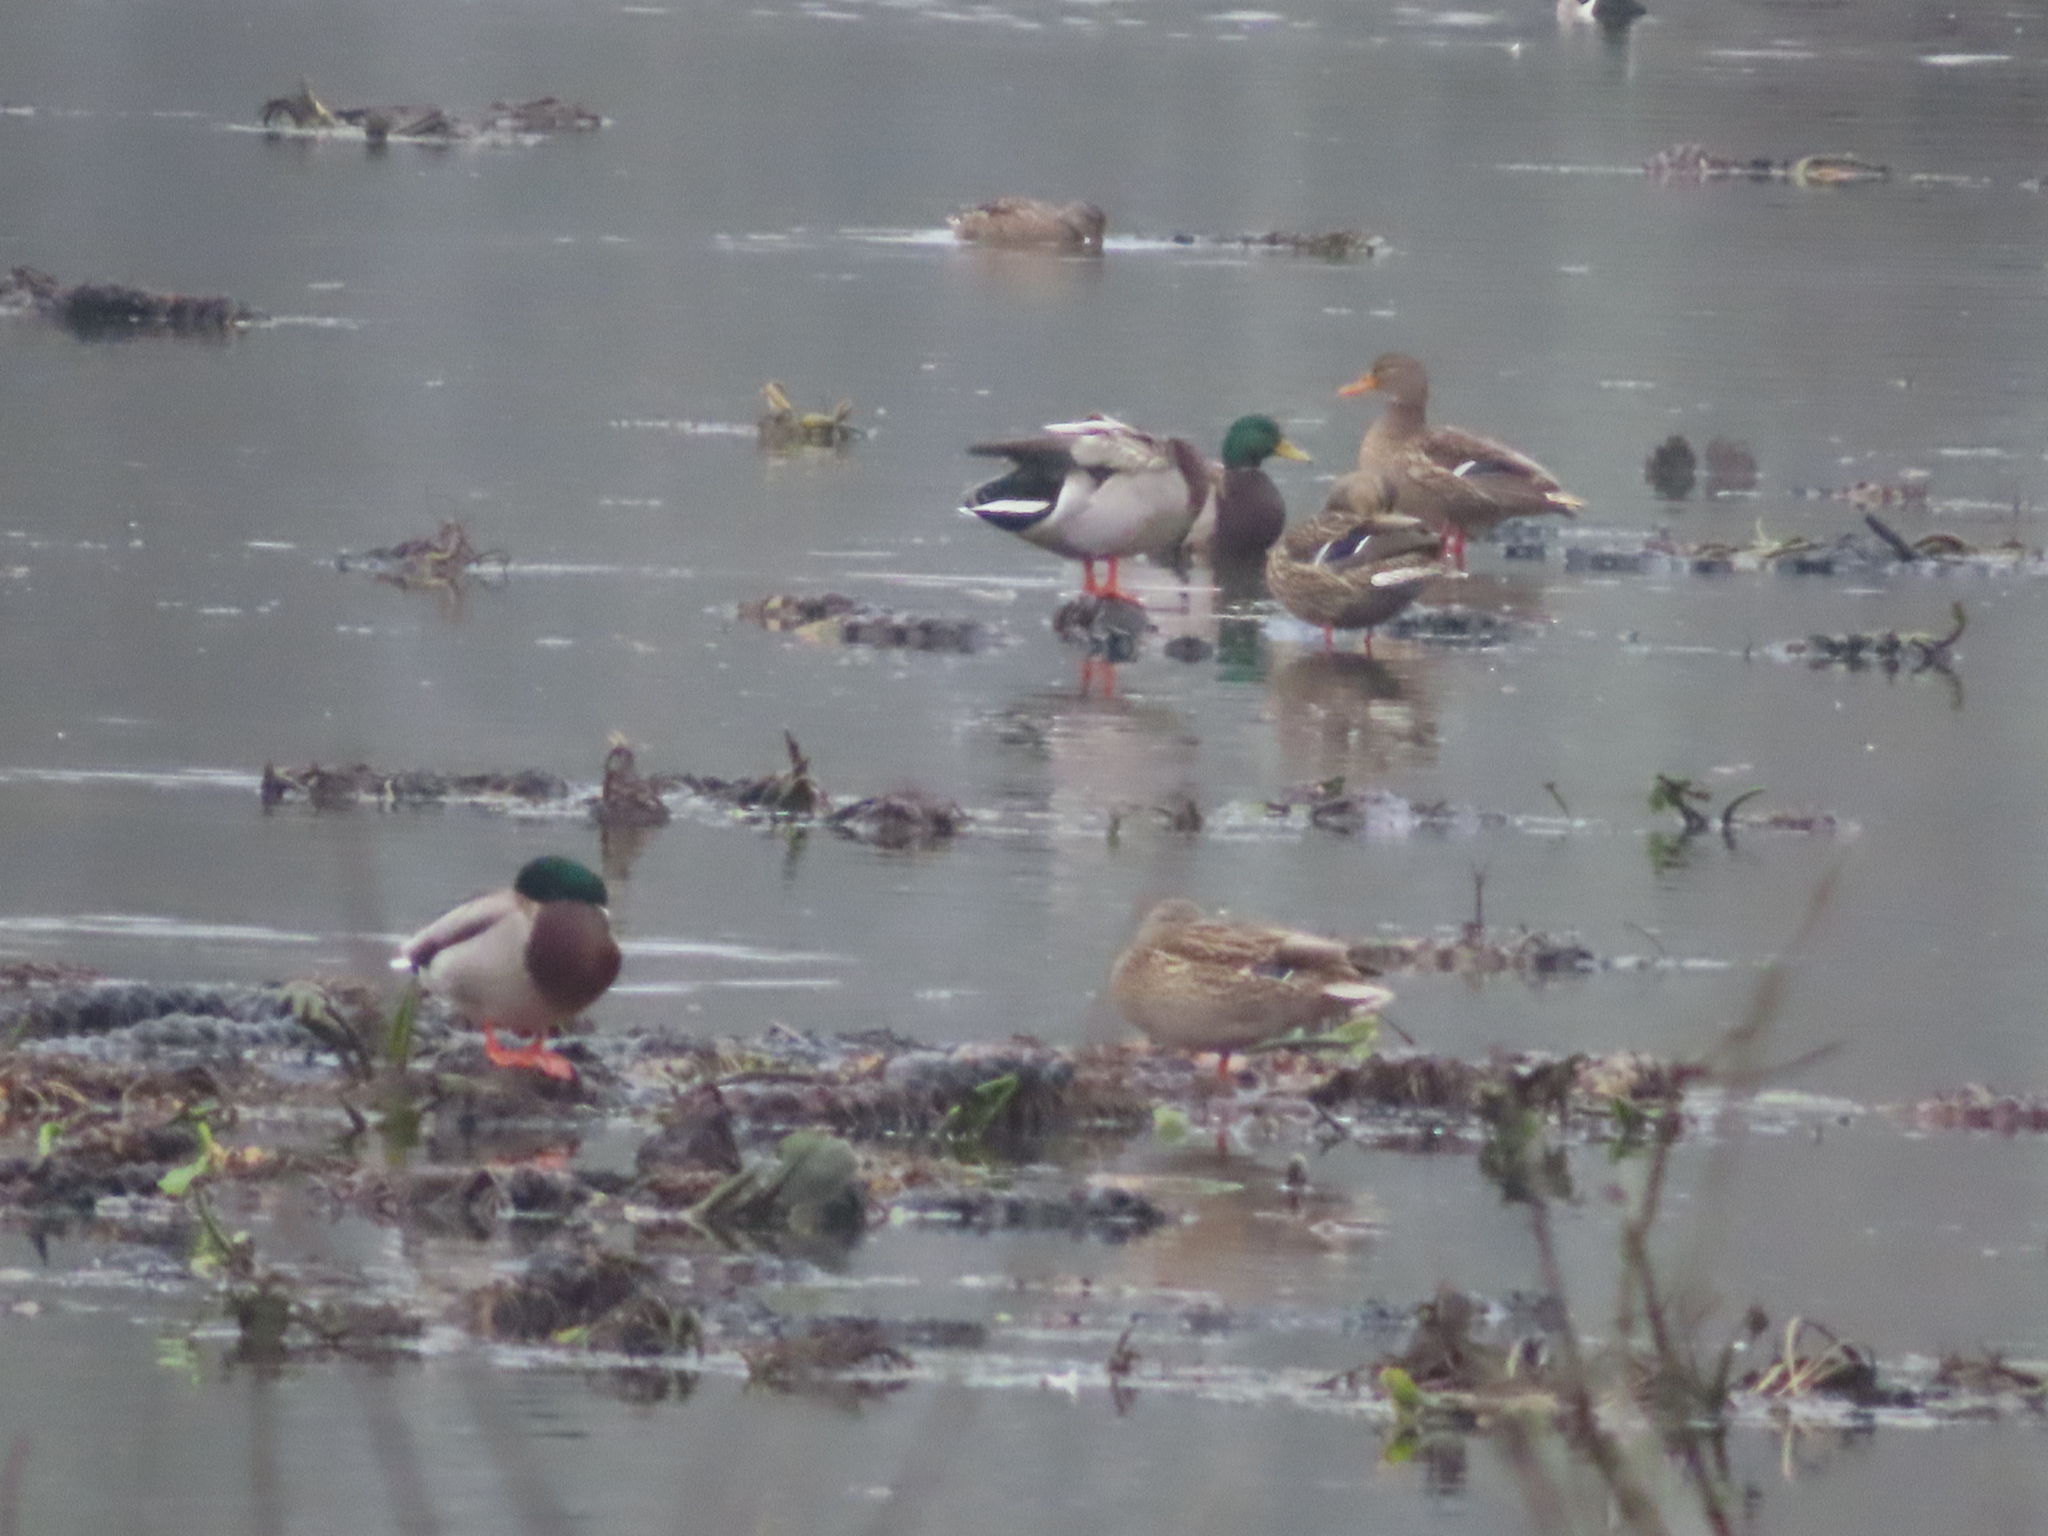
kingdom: Animalia
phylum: Chordata
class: Aves
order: Anseriformes
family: Anatidae
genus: Anas
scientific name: Anas platyrhynchos
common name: Mallard
